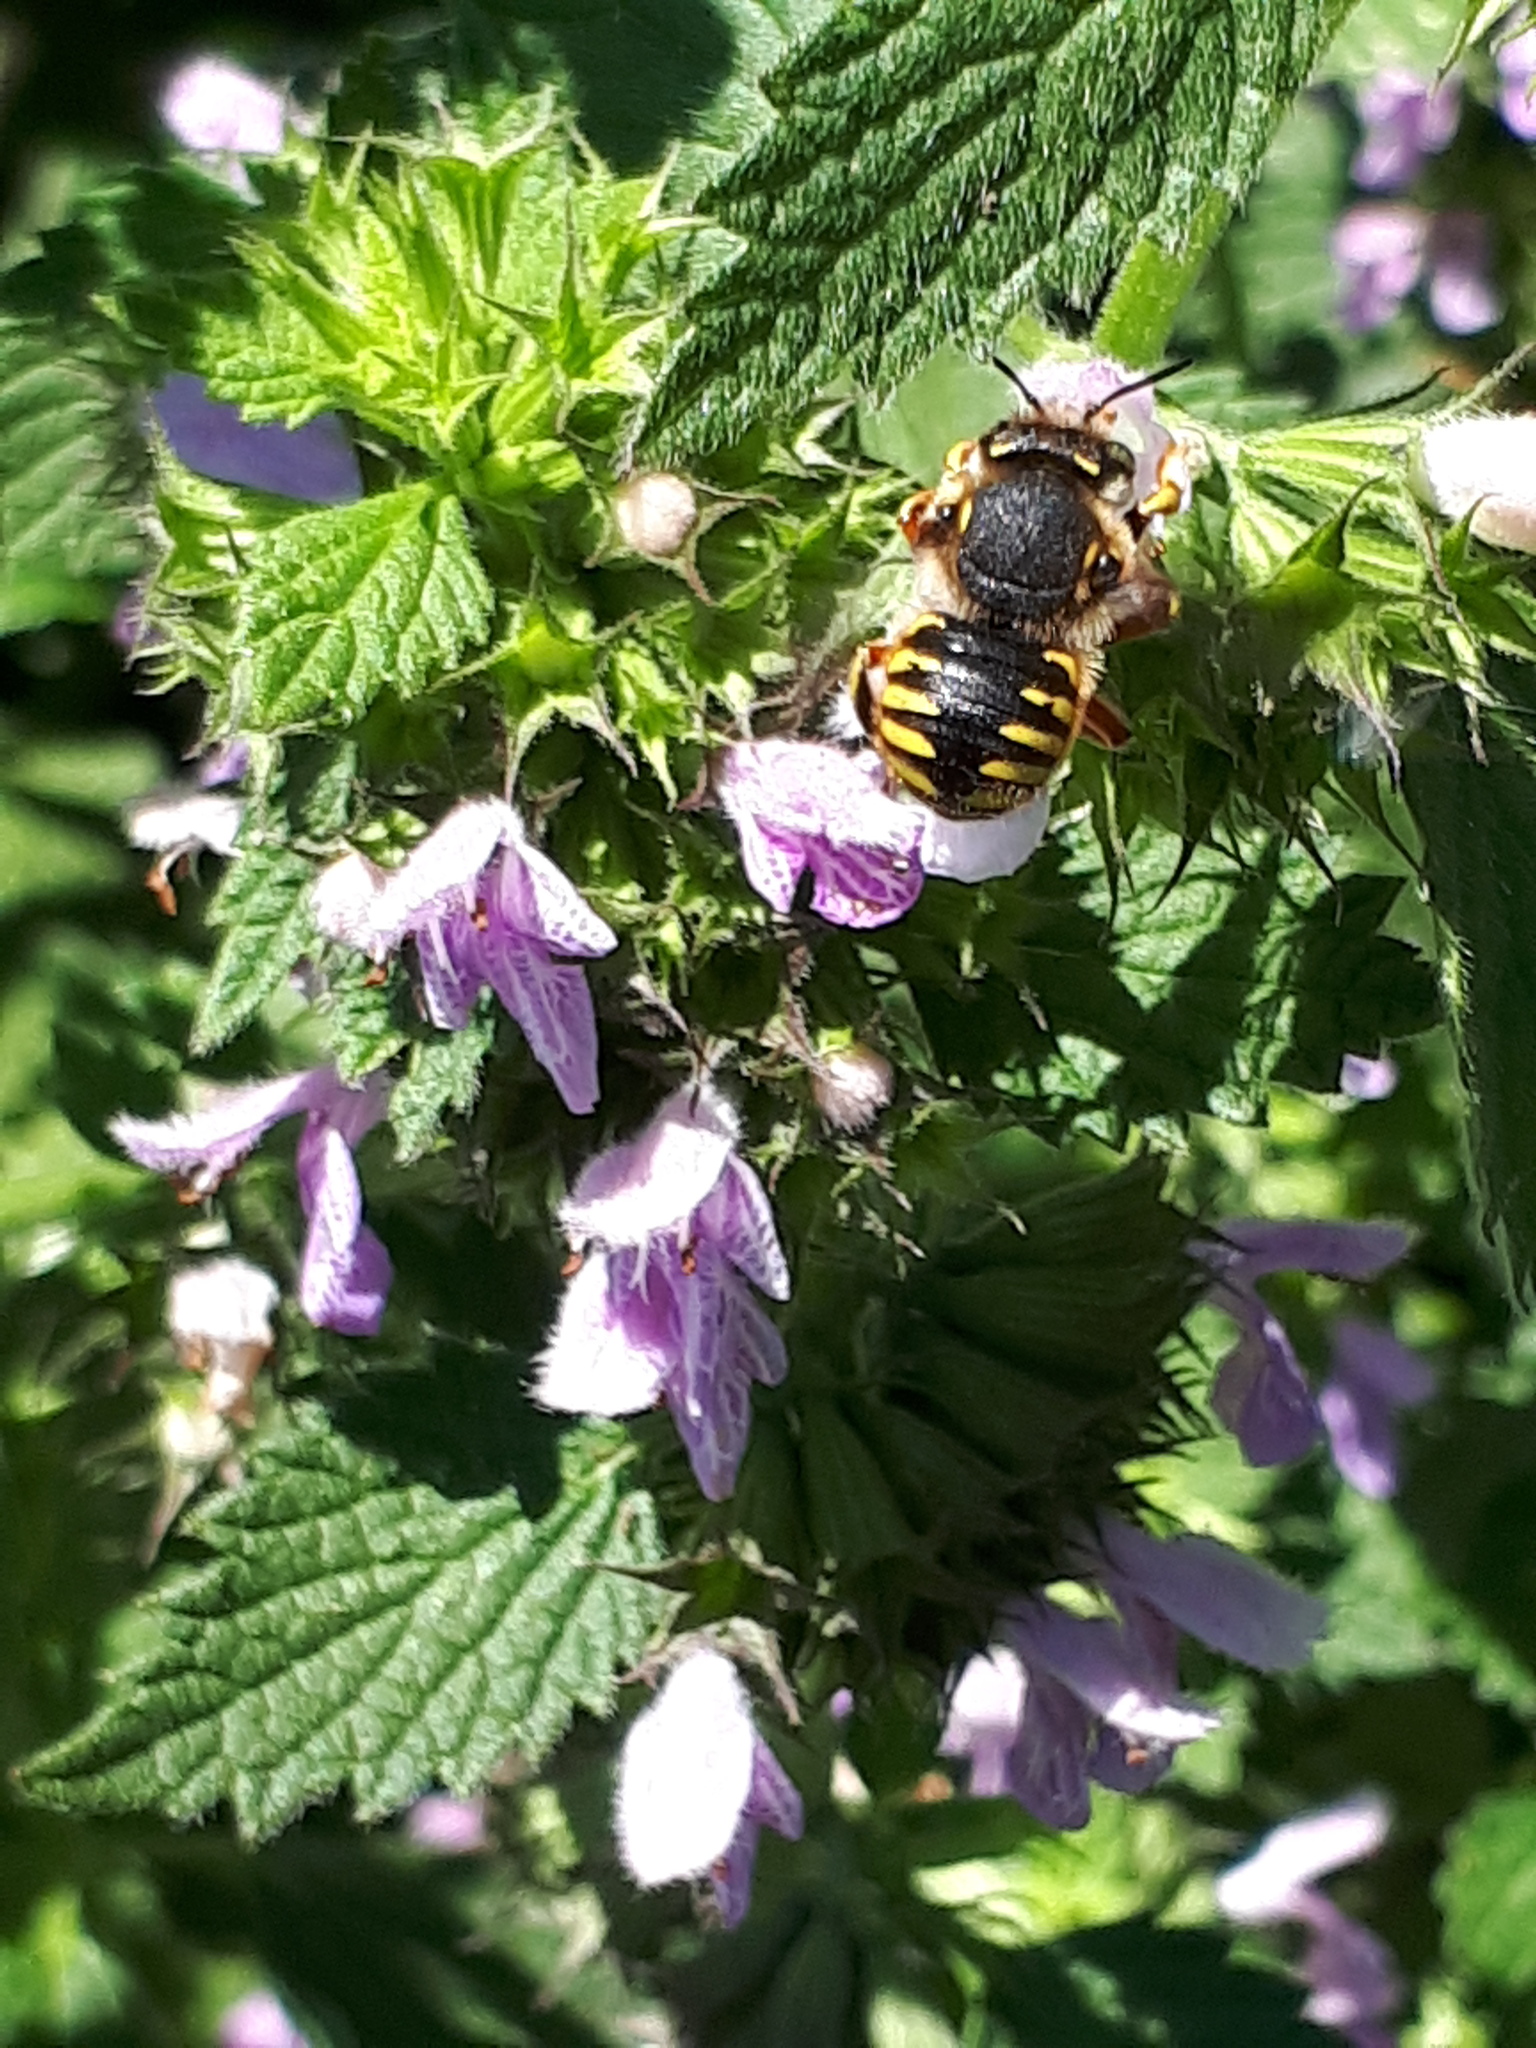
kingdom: Animalia
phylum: Arthropoda
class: Insecta
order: Hymenoptera
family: Megachilidae
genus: Anthidium
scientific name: Anthidium manicatum
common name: Wool carder bee
